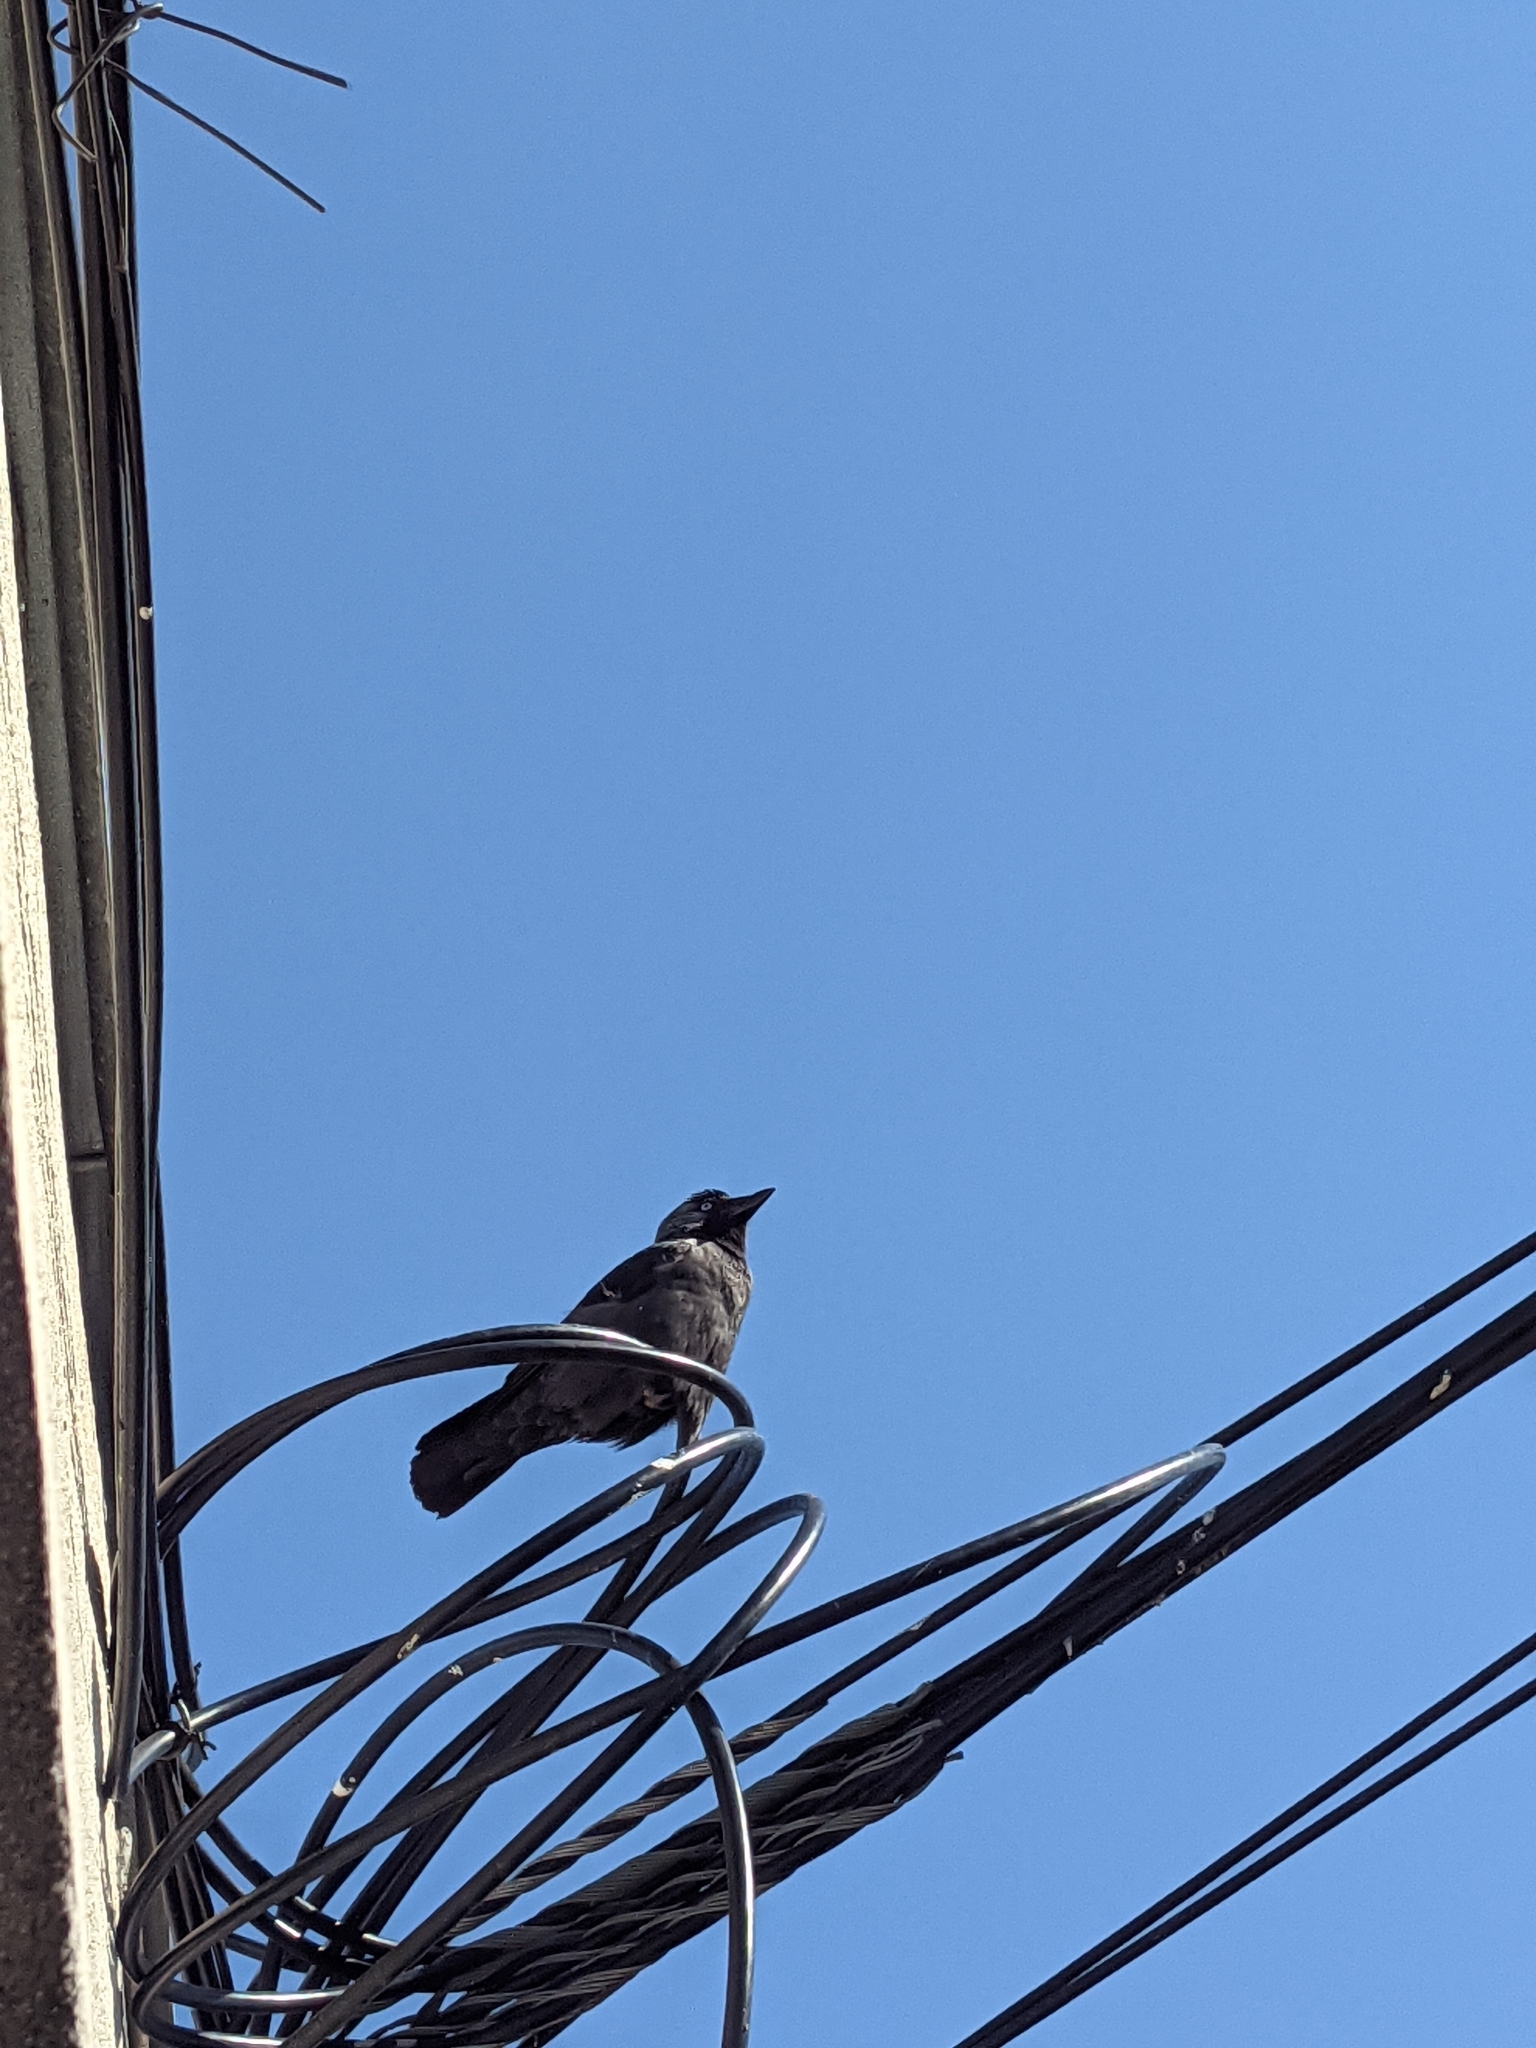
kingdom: Animalia
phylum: Chordata
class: Aves
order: Passeriformes
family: Corvidae
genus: Coloeus
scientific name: Coloeus monedula
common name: Western jackdaw
